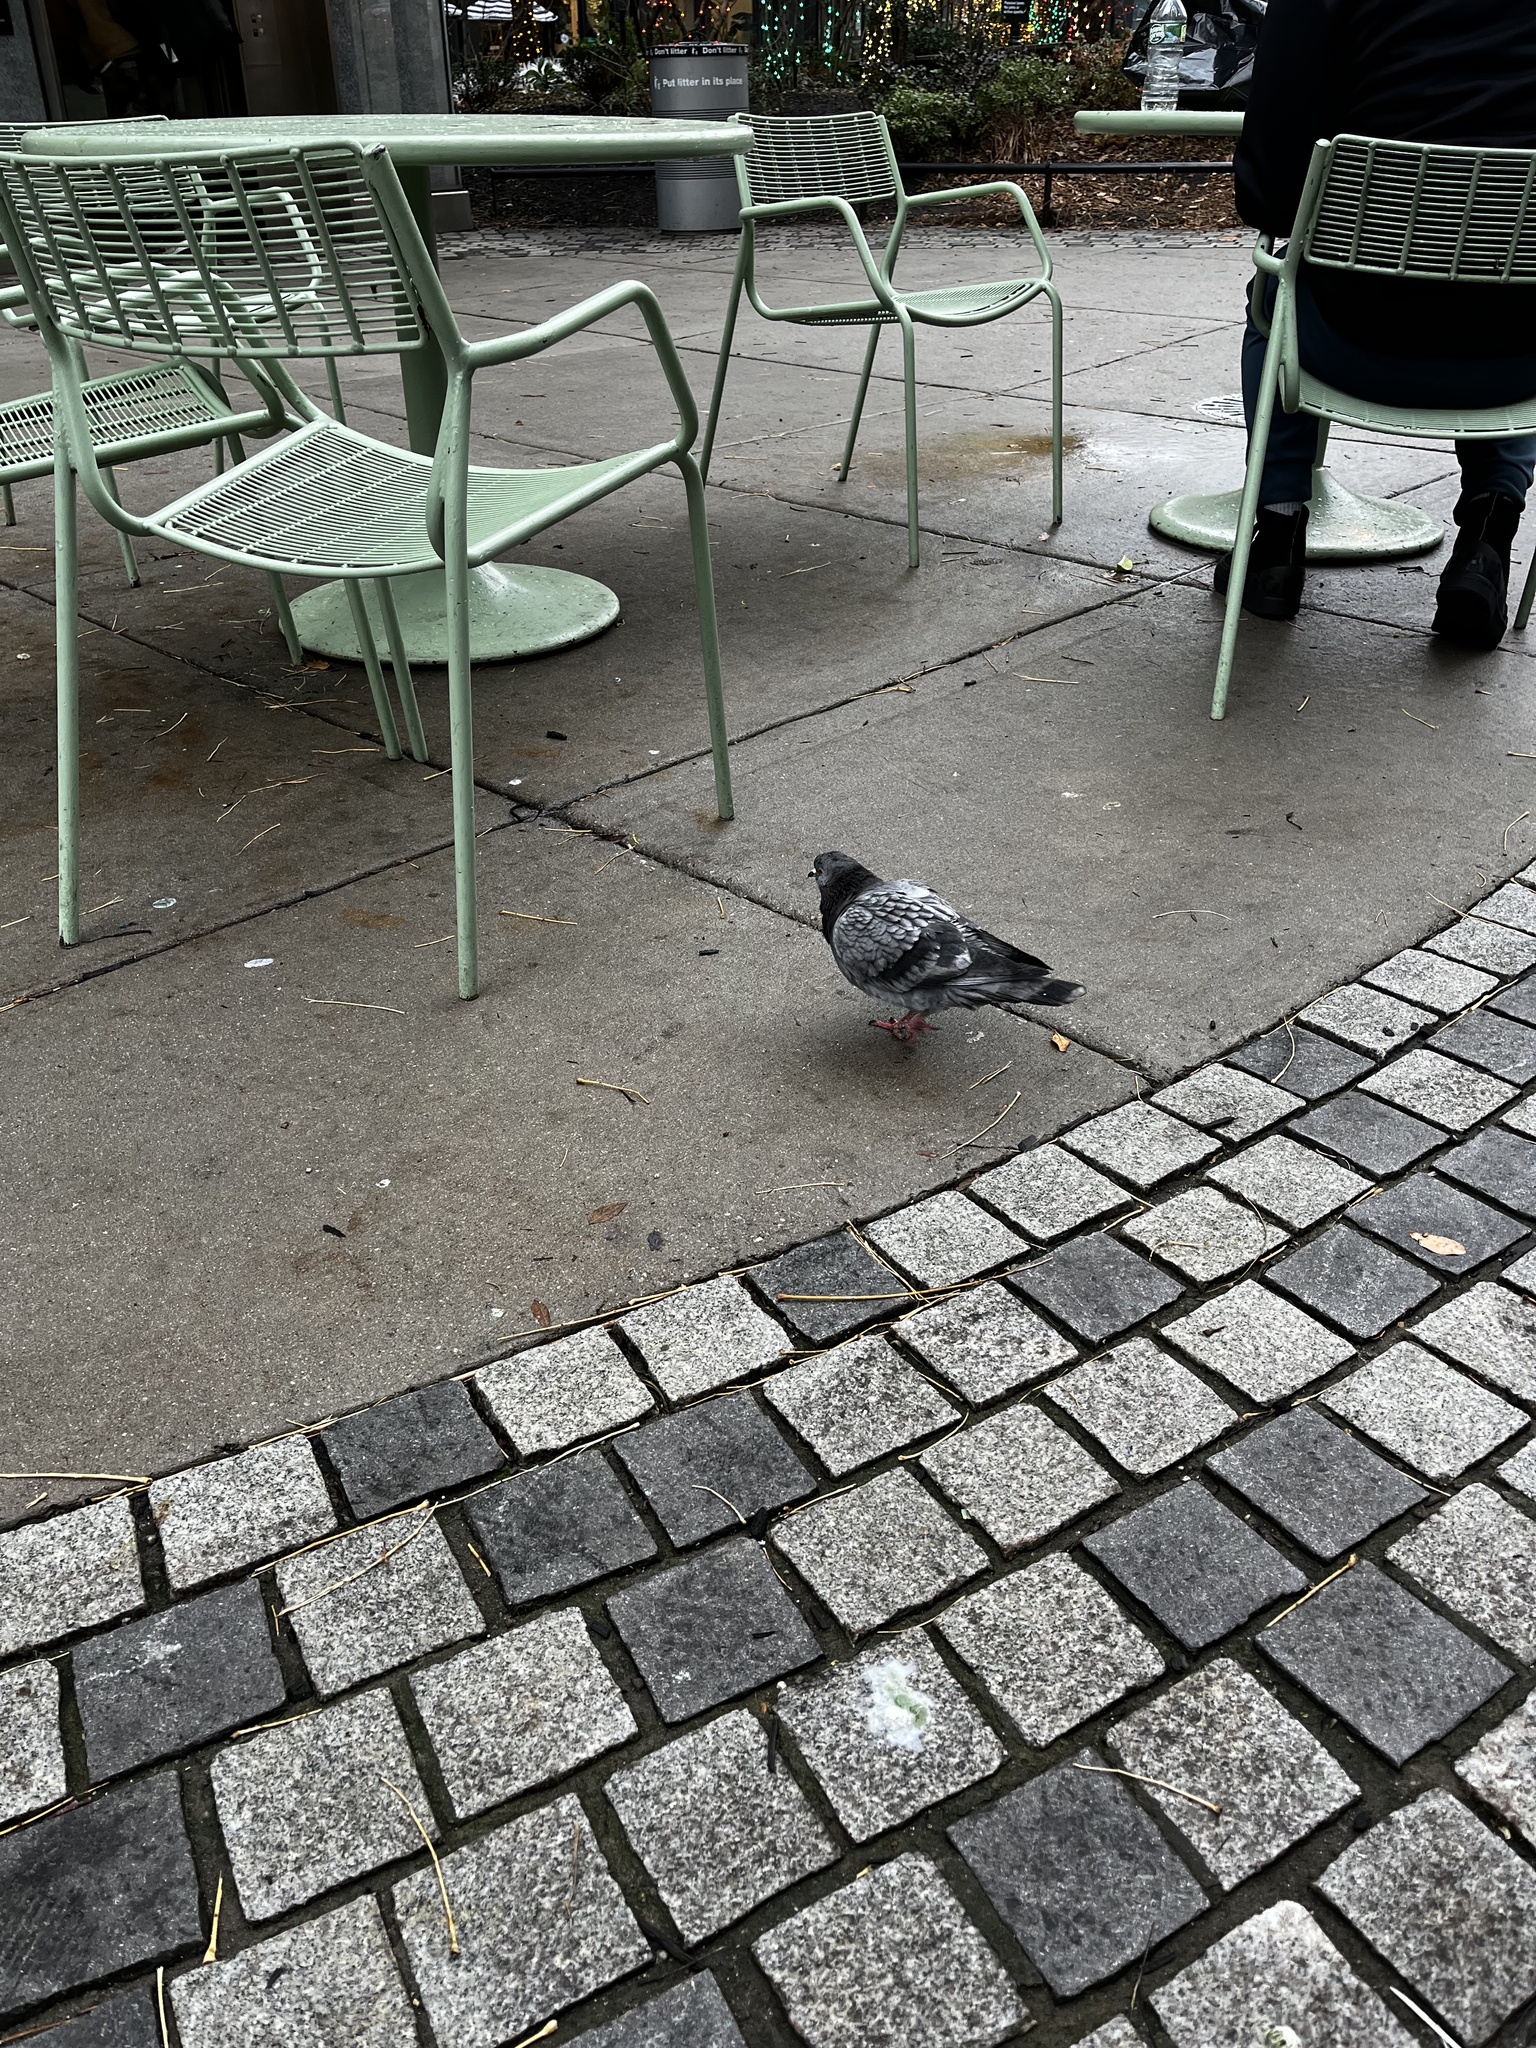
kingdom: Animalia
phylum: Chordata
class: Aves
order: Columbiformes
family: Columbidae
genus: Columba
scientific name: Columba livia
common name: Rock pigeon
